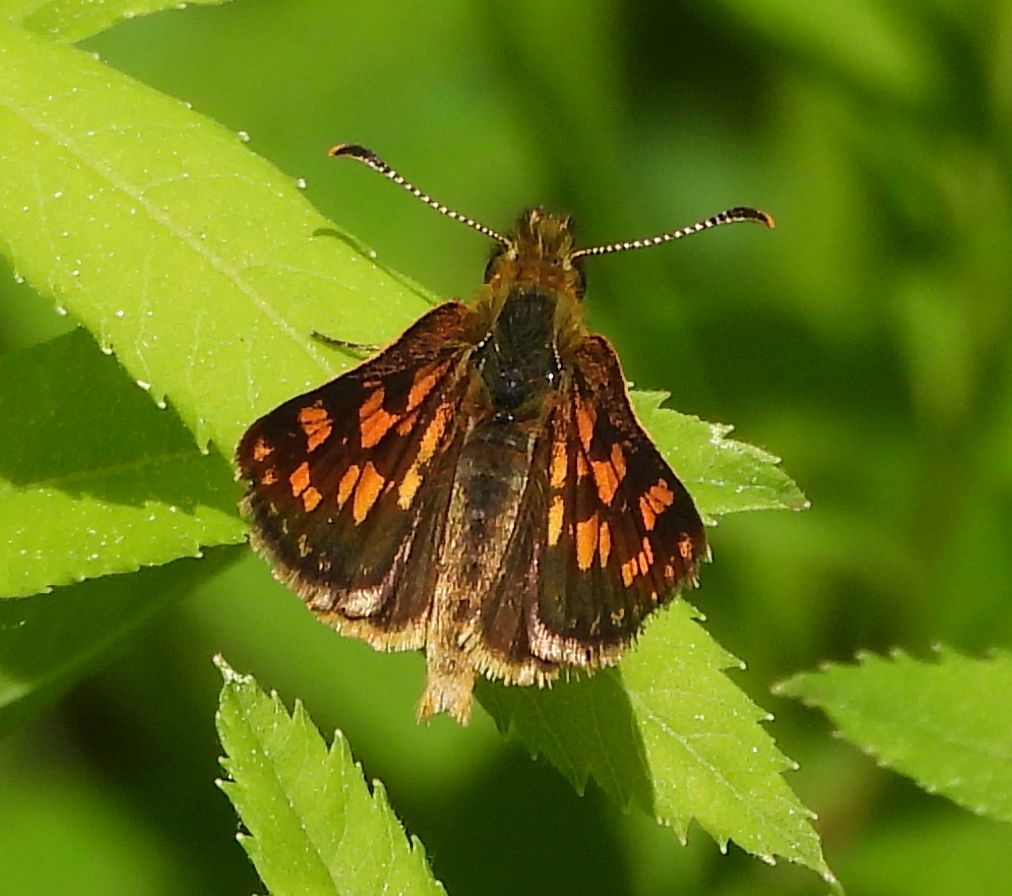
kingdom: Animalia
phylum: Arthropoda
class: Insecta
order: Lepidoptera
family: Hesperiidae
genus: Carterocephalus
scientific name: Carterocephalus mandan
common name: Arctic skipperling
